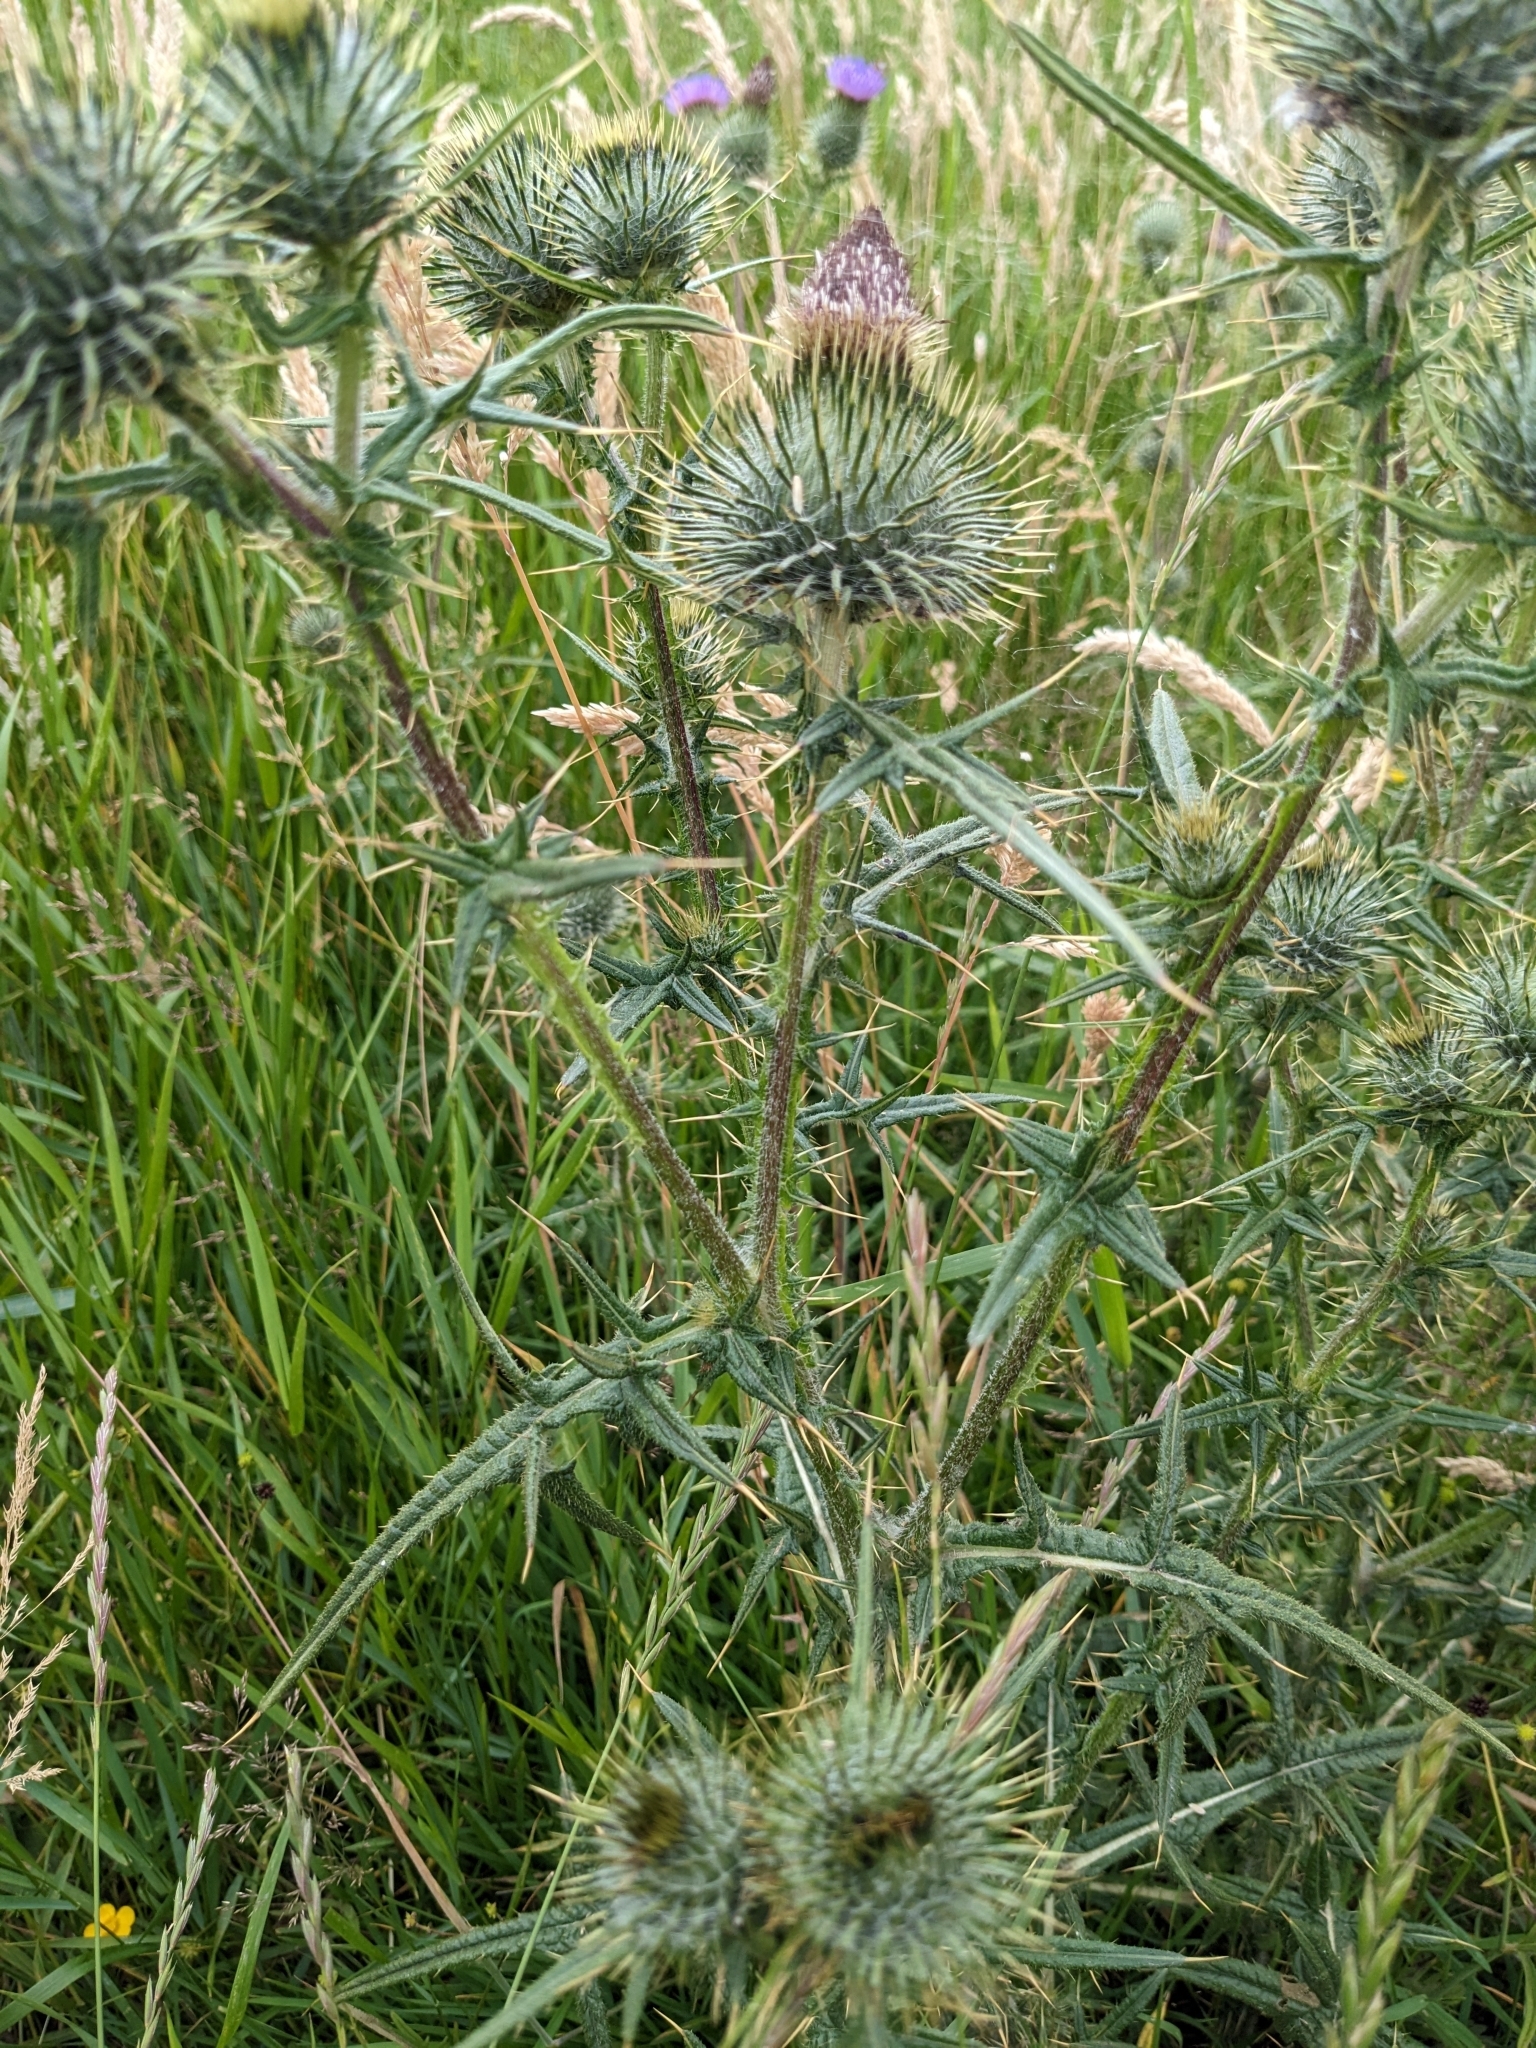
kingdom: Plantae
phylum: Tracheophyta
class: Magnoliopsida
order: Asterales
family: Asteraceae
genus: Cirsium
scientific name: Cirsium vulgare
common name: Bull thistle
